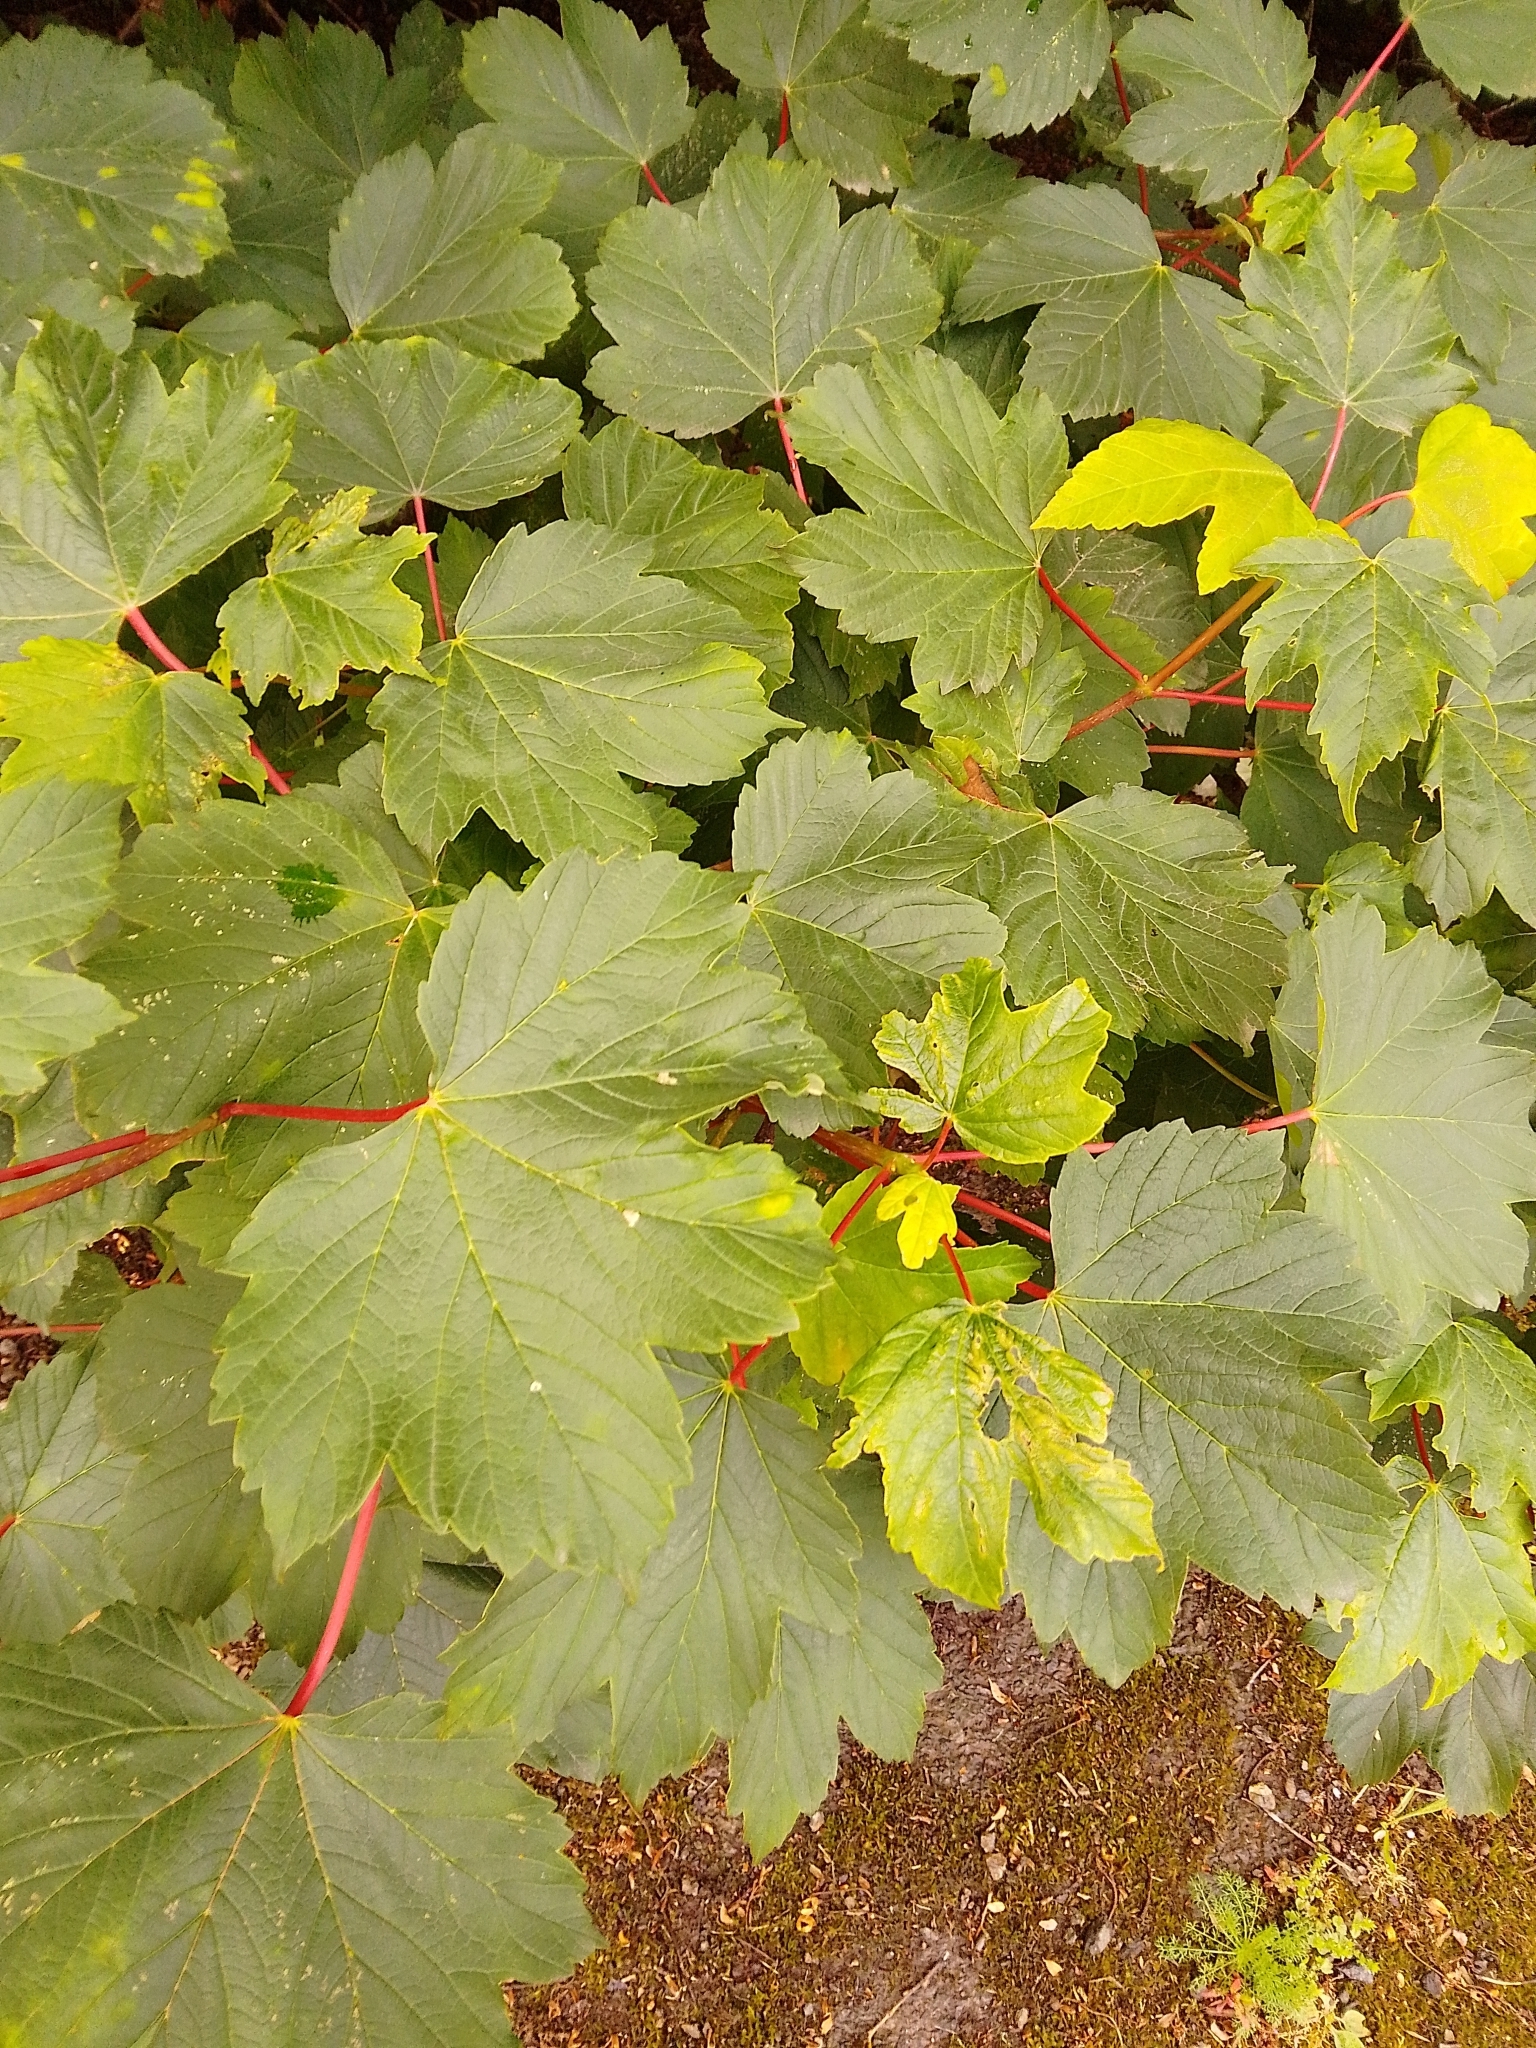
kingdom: Plantae
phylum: Tracheophyta
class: Magnoliopsida
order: Sapindales
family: Sapindaceae
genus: Acer
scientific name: Acer pseudoplatanus
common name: Sycamore
